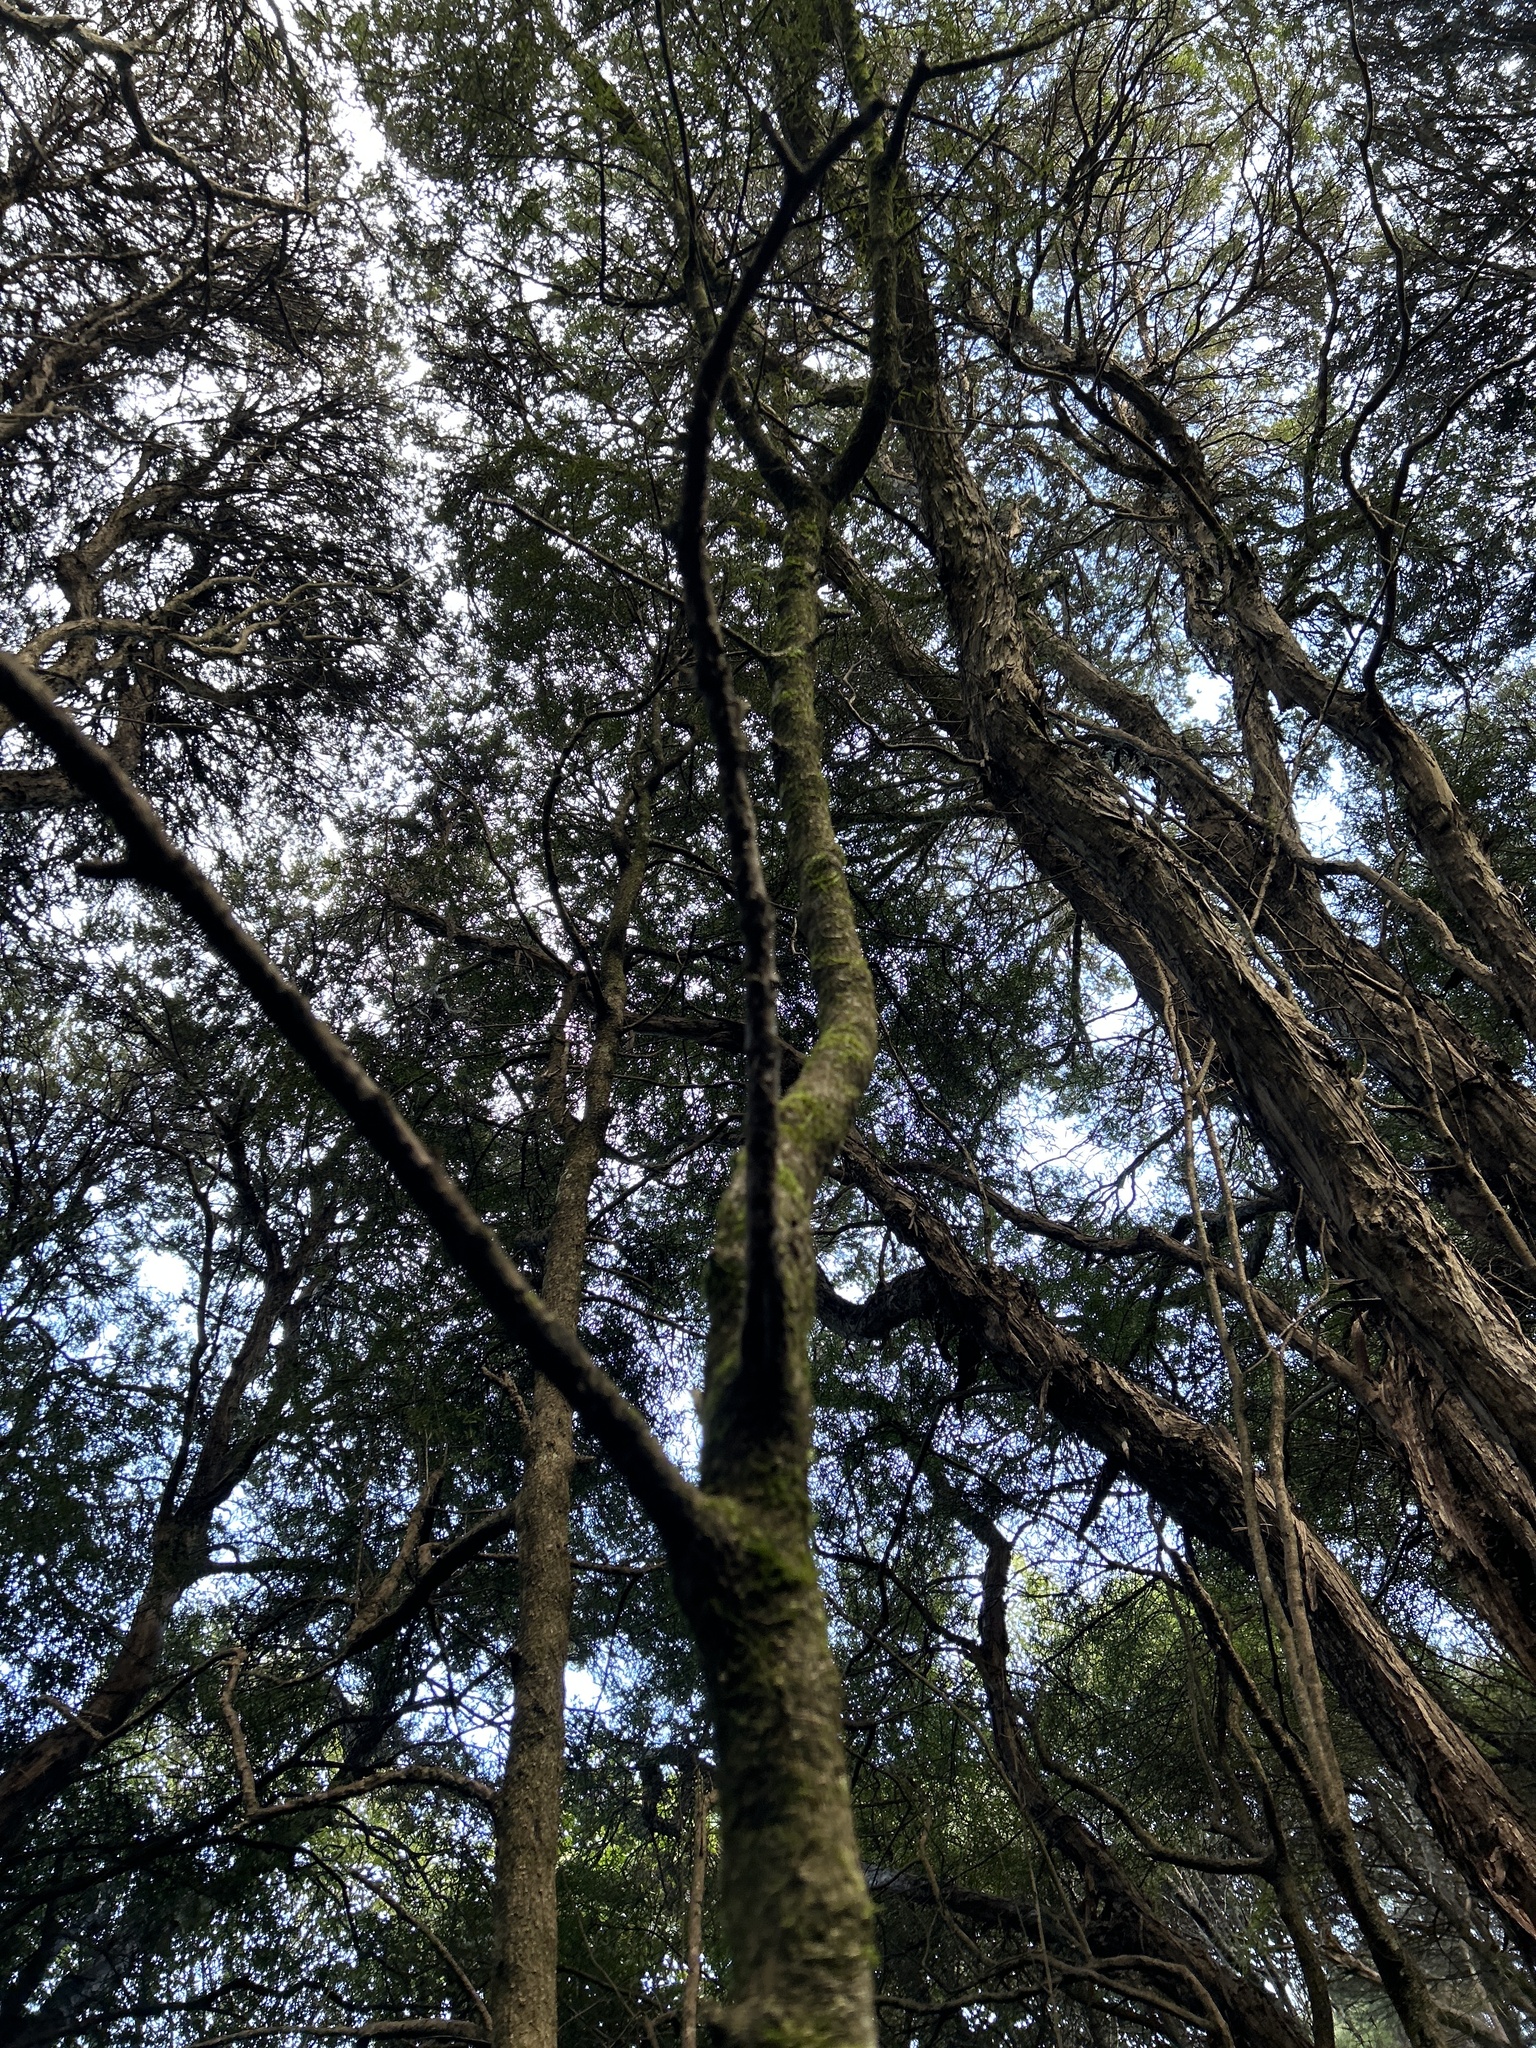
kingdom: Plantae
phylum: Tracheophyta
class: Magnoliopsida
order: Gentianales
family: Rubiaceae
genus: Coprosma
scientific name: Coprosma linariifolia
